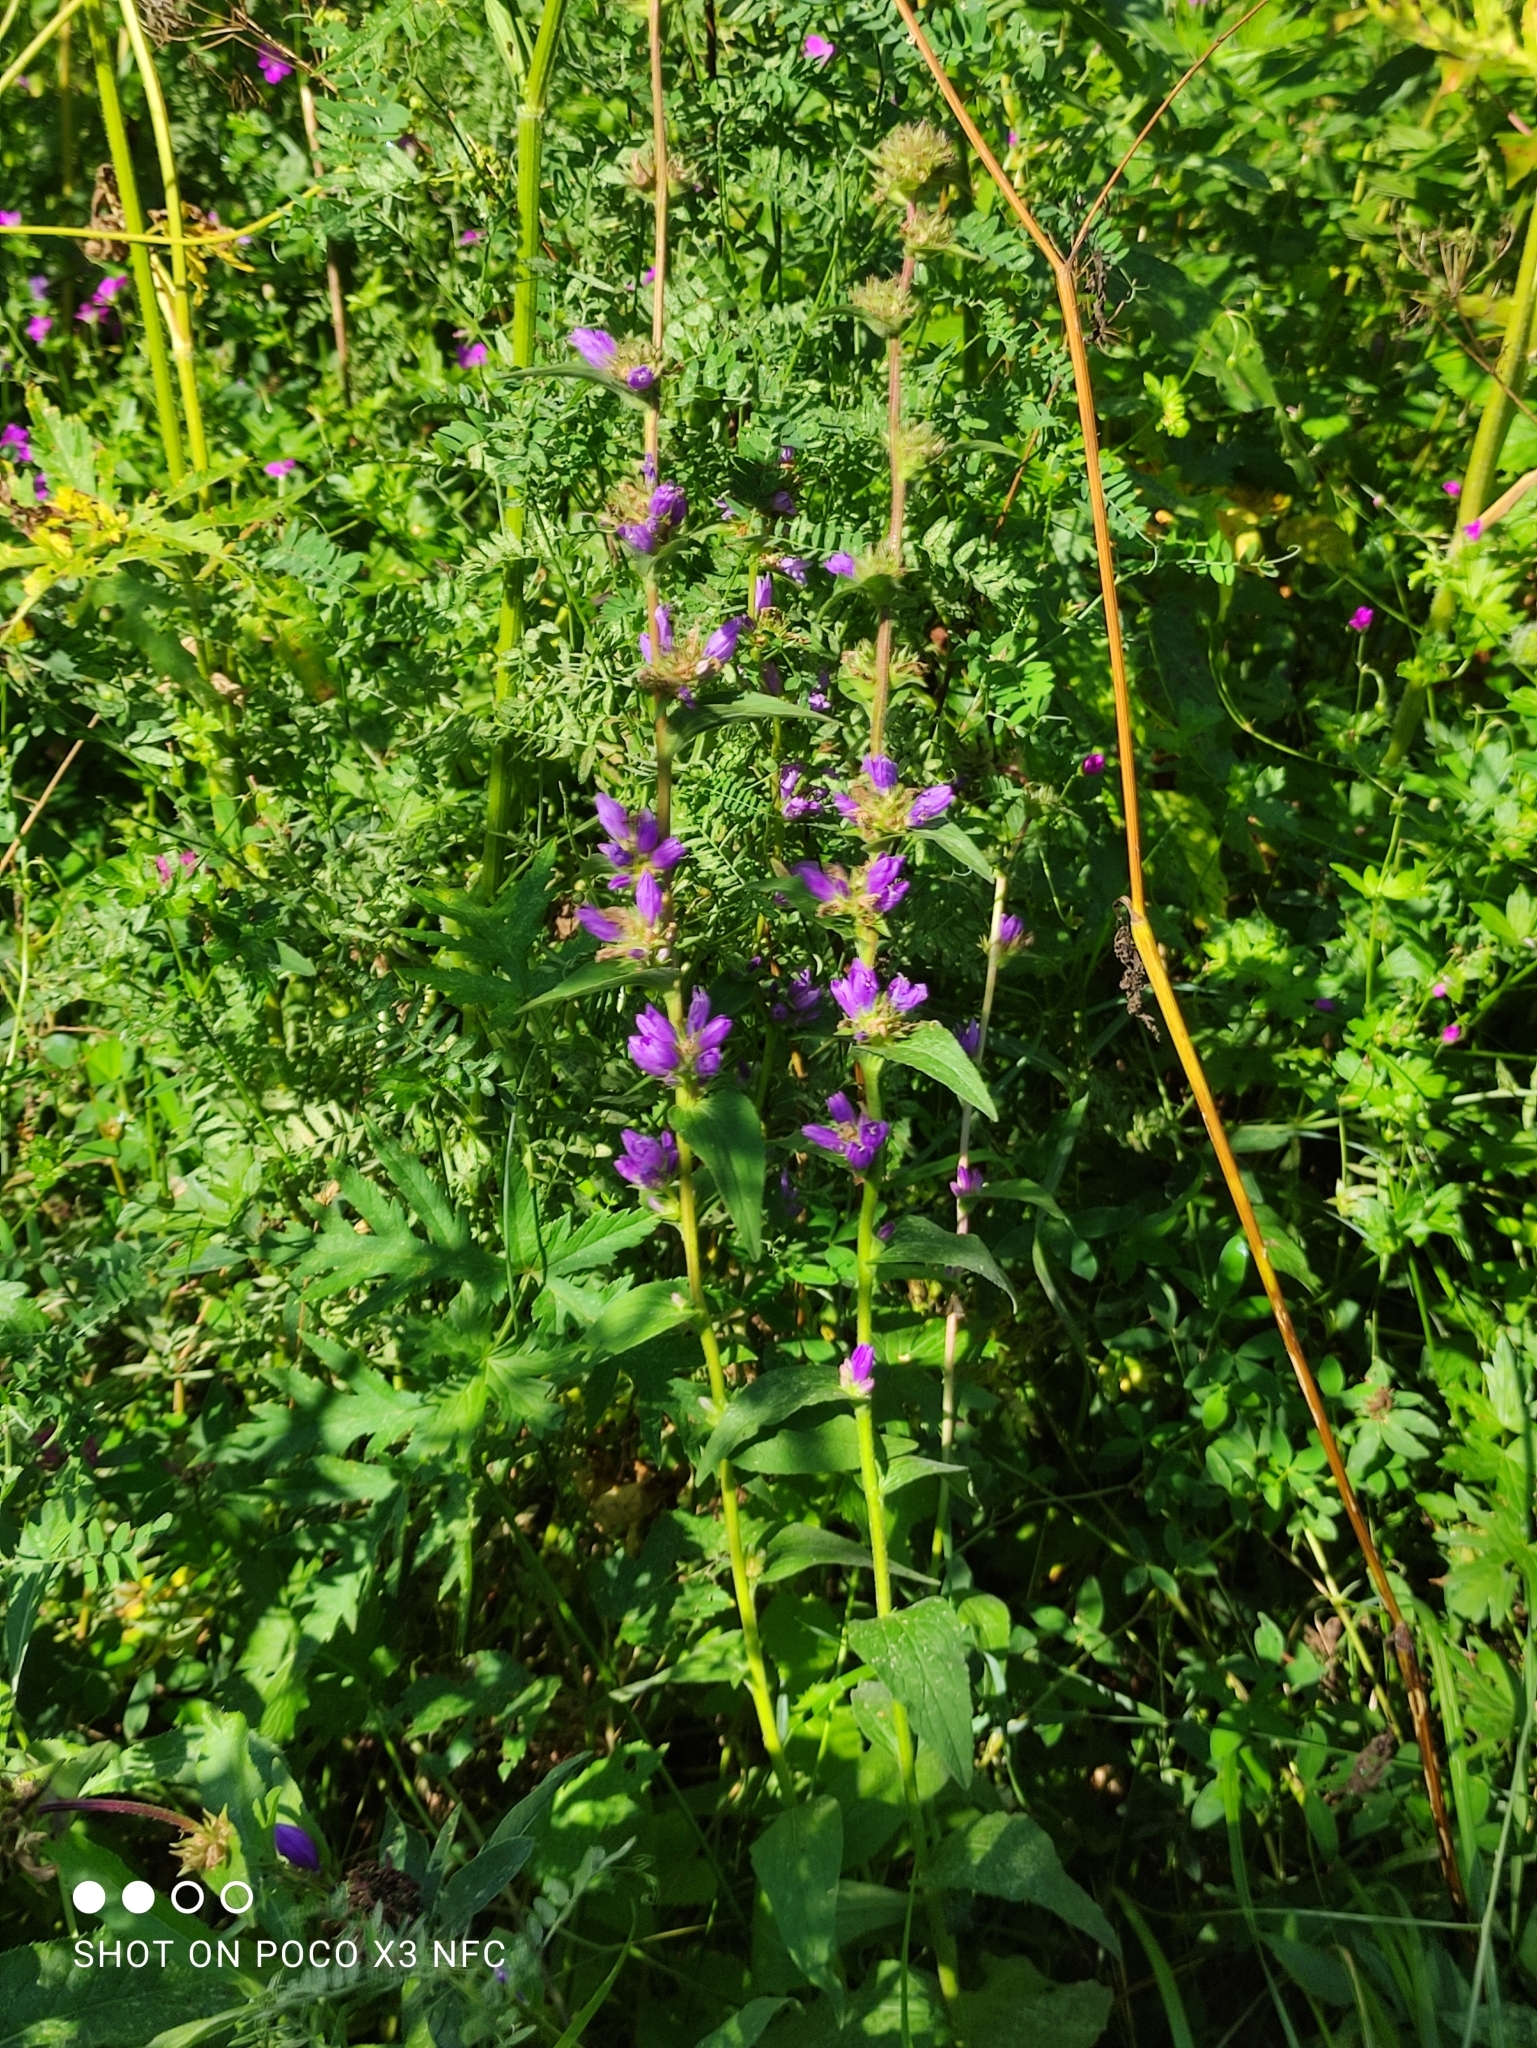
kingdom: Plantae
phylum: Tracheophyta
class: Magnoliopsida
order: Asterales
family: Campanulaceae
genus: Campanula
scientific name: Campanula glomerata
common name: Clustered bellflower
